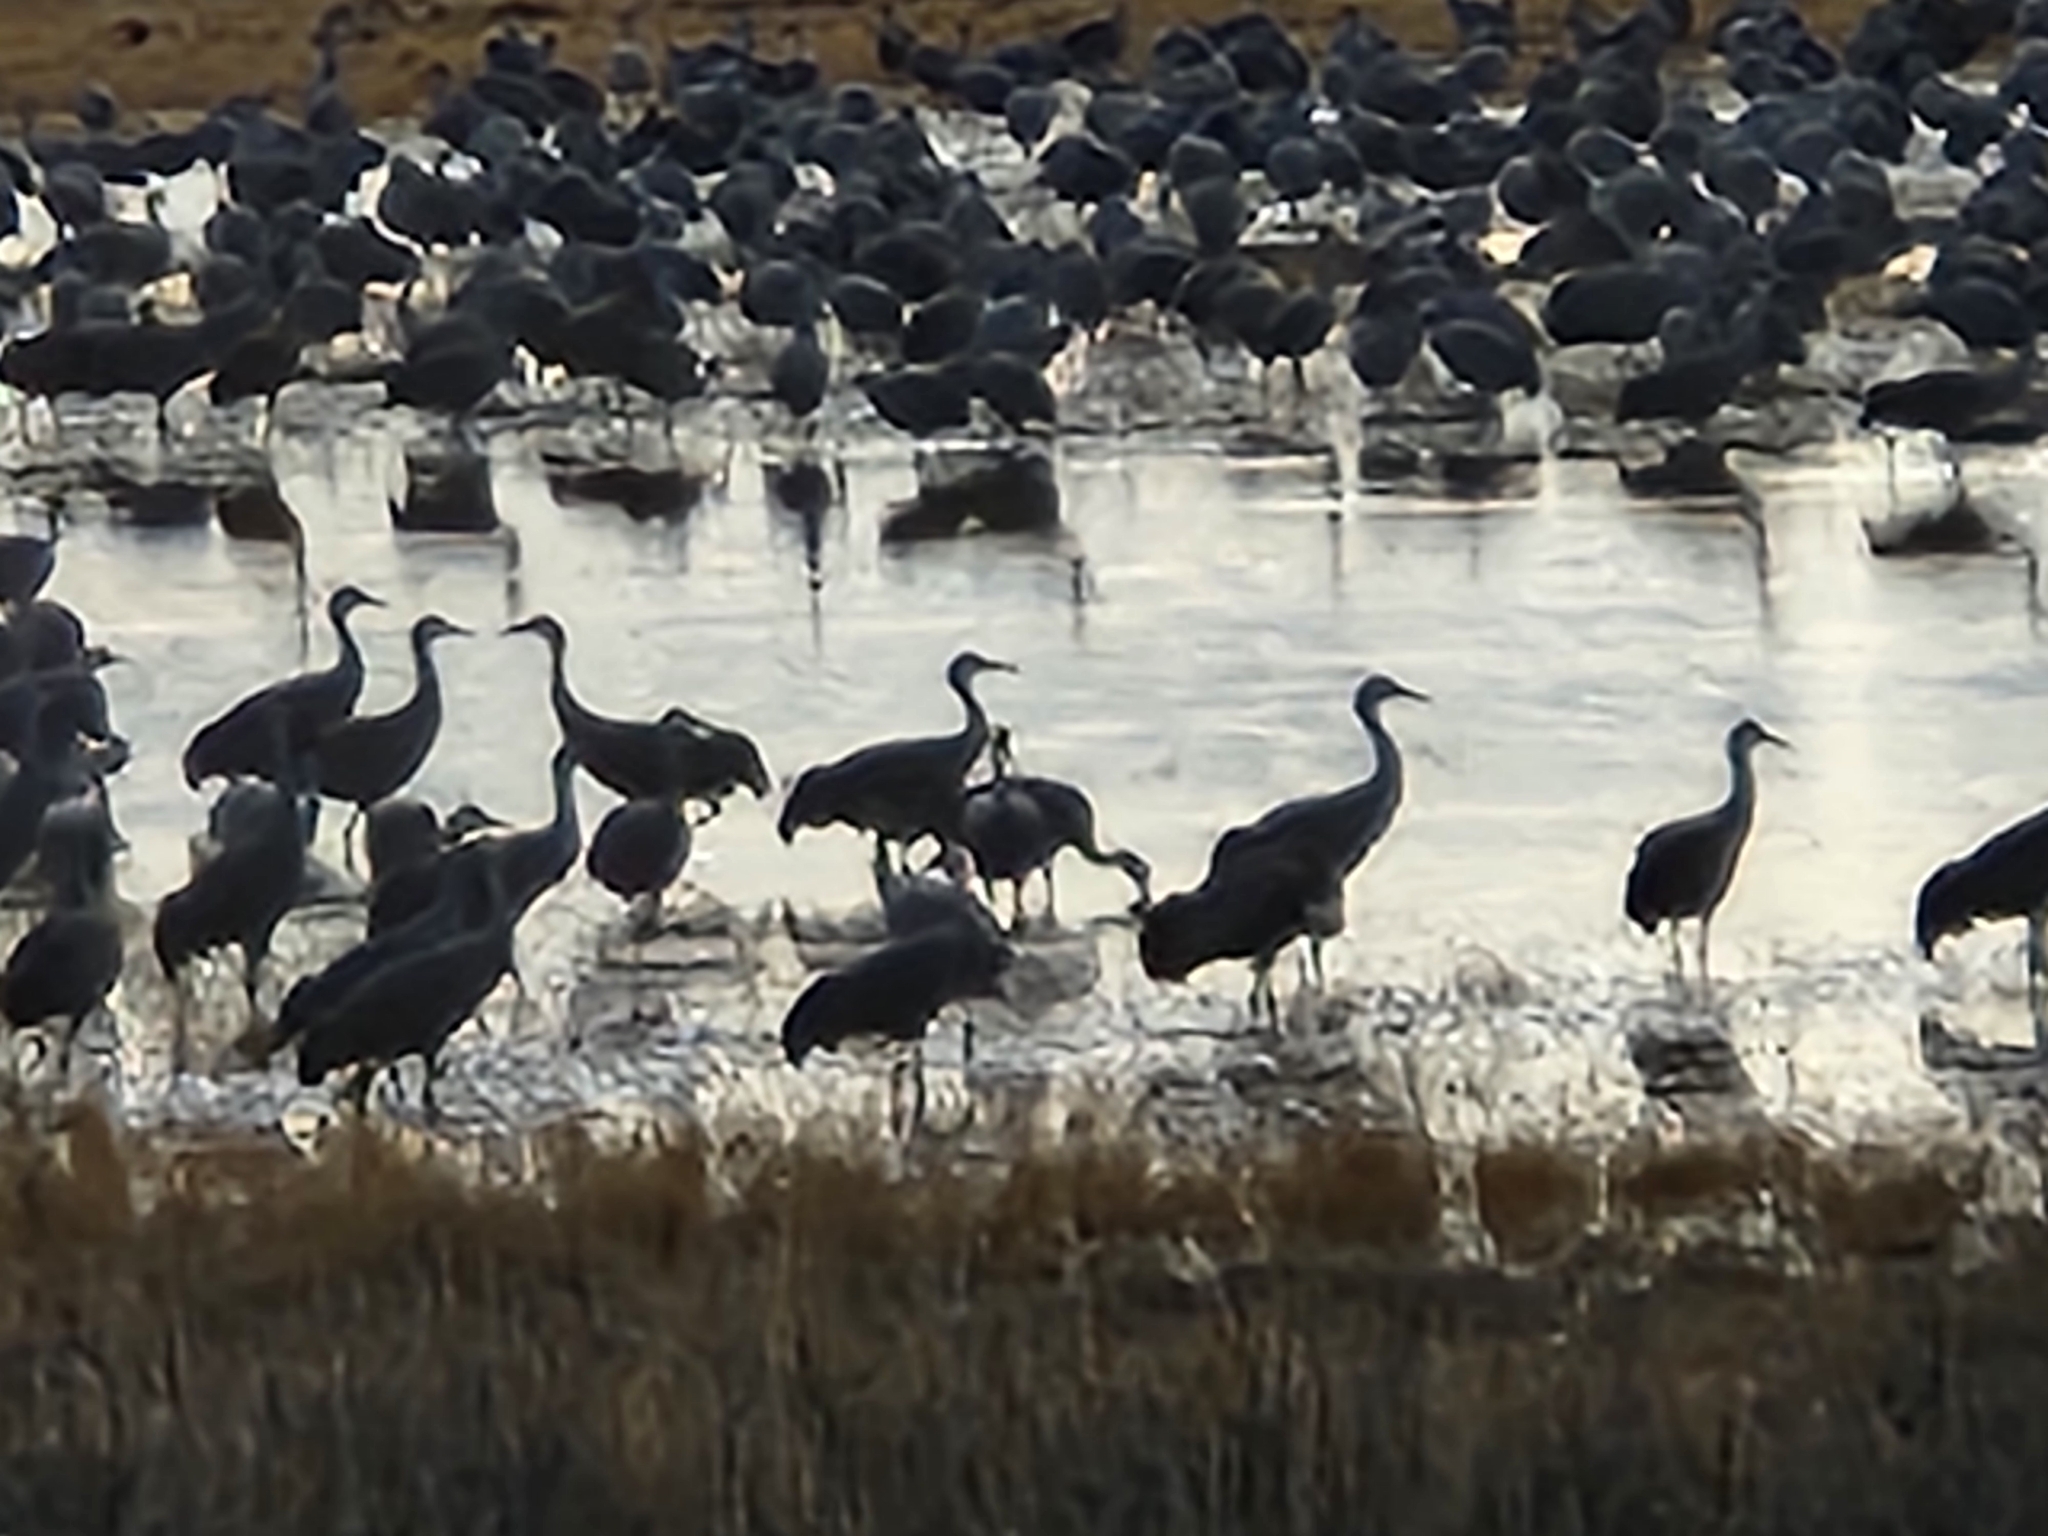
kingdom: Animalia
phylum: Chordata
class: Aves
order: Gruiformes
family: Gruidae
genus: Grus
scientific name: Grus canadensis
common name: Sandhill crane
